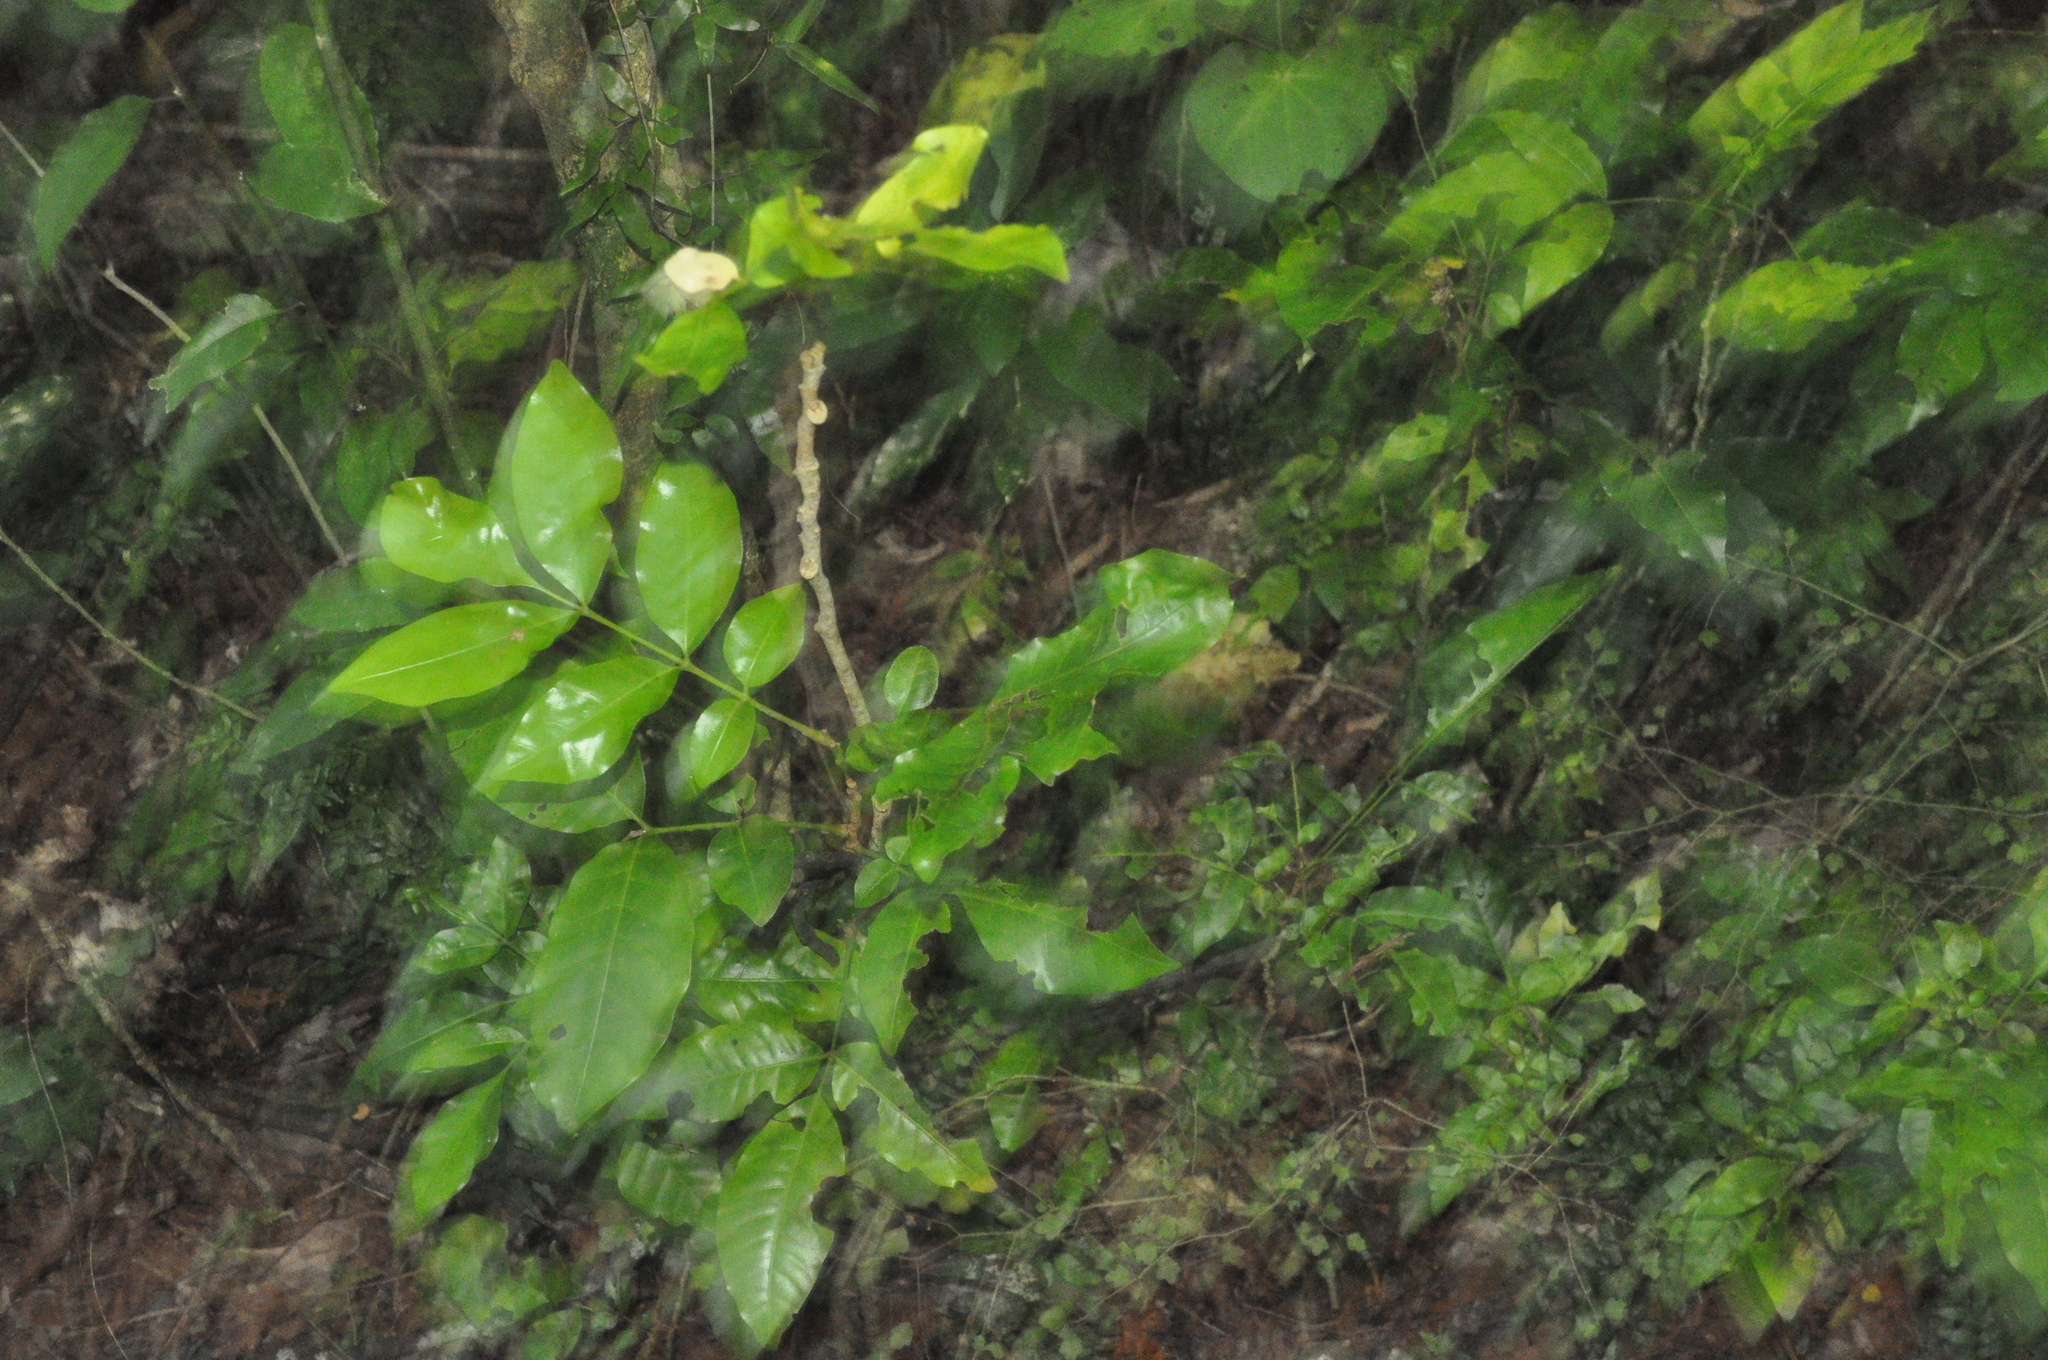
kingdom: Plantae
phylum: Tracheophyta
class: Magnoliopsida
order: Sapindales
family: Meliaceae
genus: Didymocheton
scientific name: Didymocheton spectabilis
